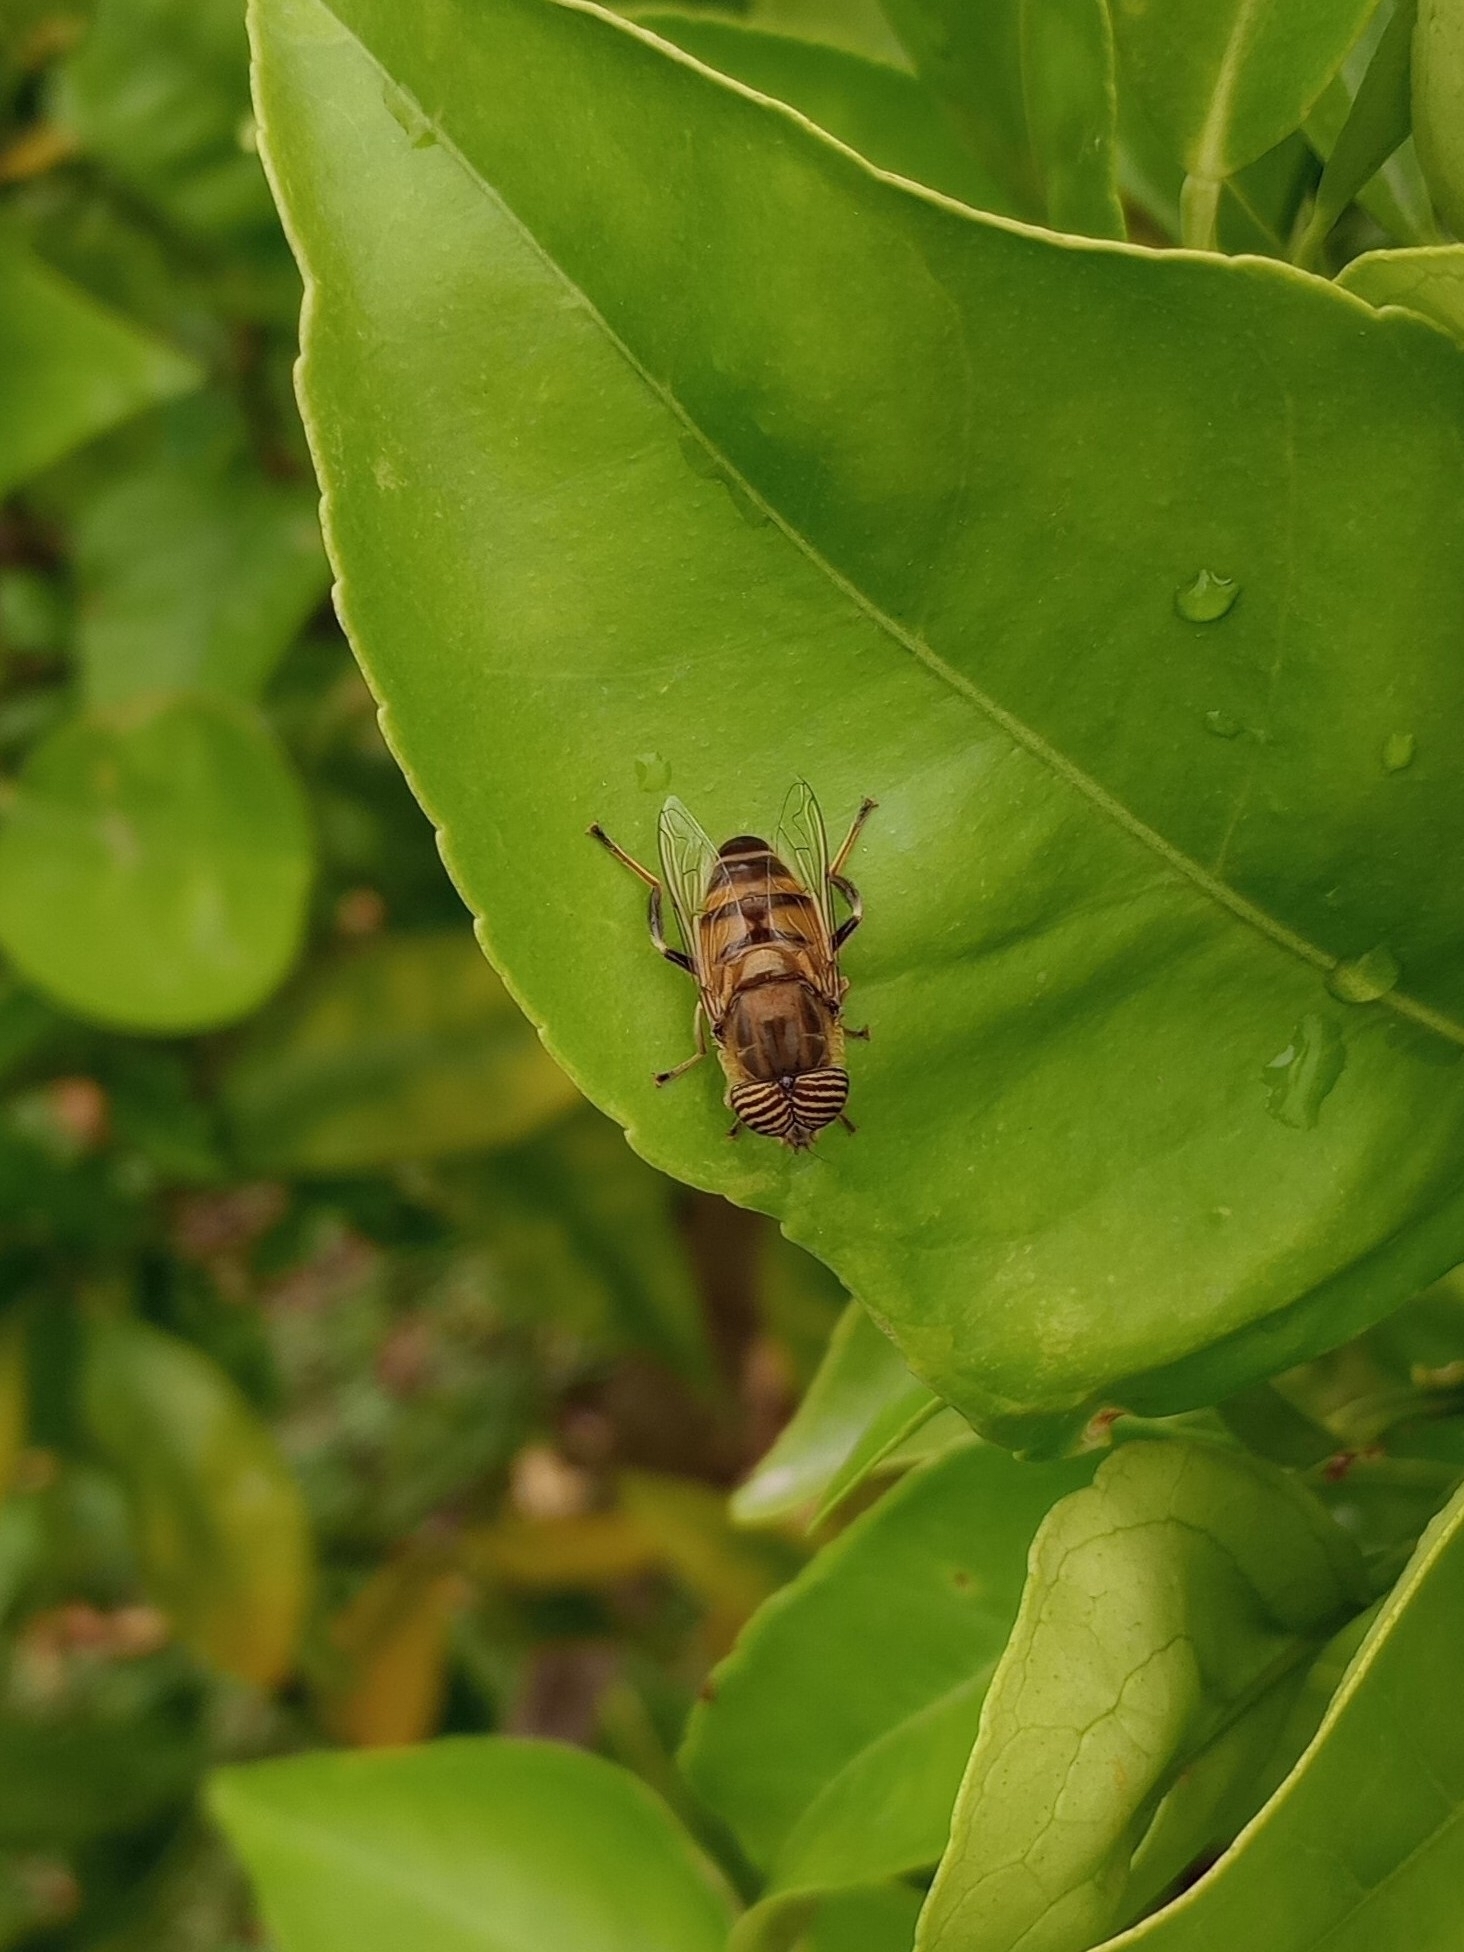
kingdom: Animalia
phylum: Arthropoda
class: Insecta
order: Diptera
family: Syrphidae
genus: Eristalinus
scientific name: Eristalinus taeniops
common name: Syrphid fly
